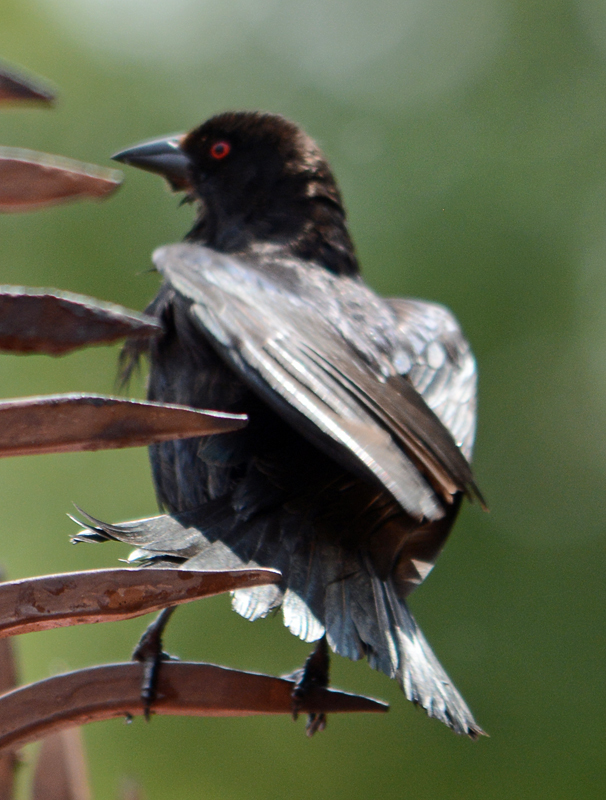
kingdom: Animalia
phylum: Chordata
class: Aves
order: Passeriformes
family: Icteridae
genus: Molothrus
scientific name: Molothrus aeneus
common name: Bronzed cowbird
